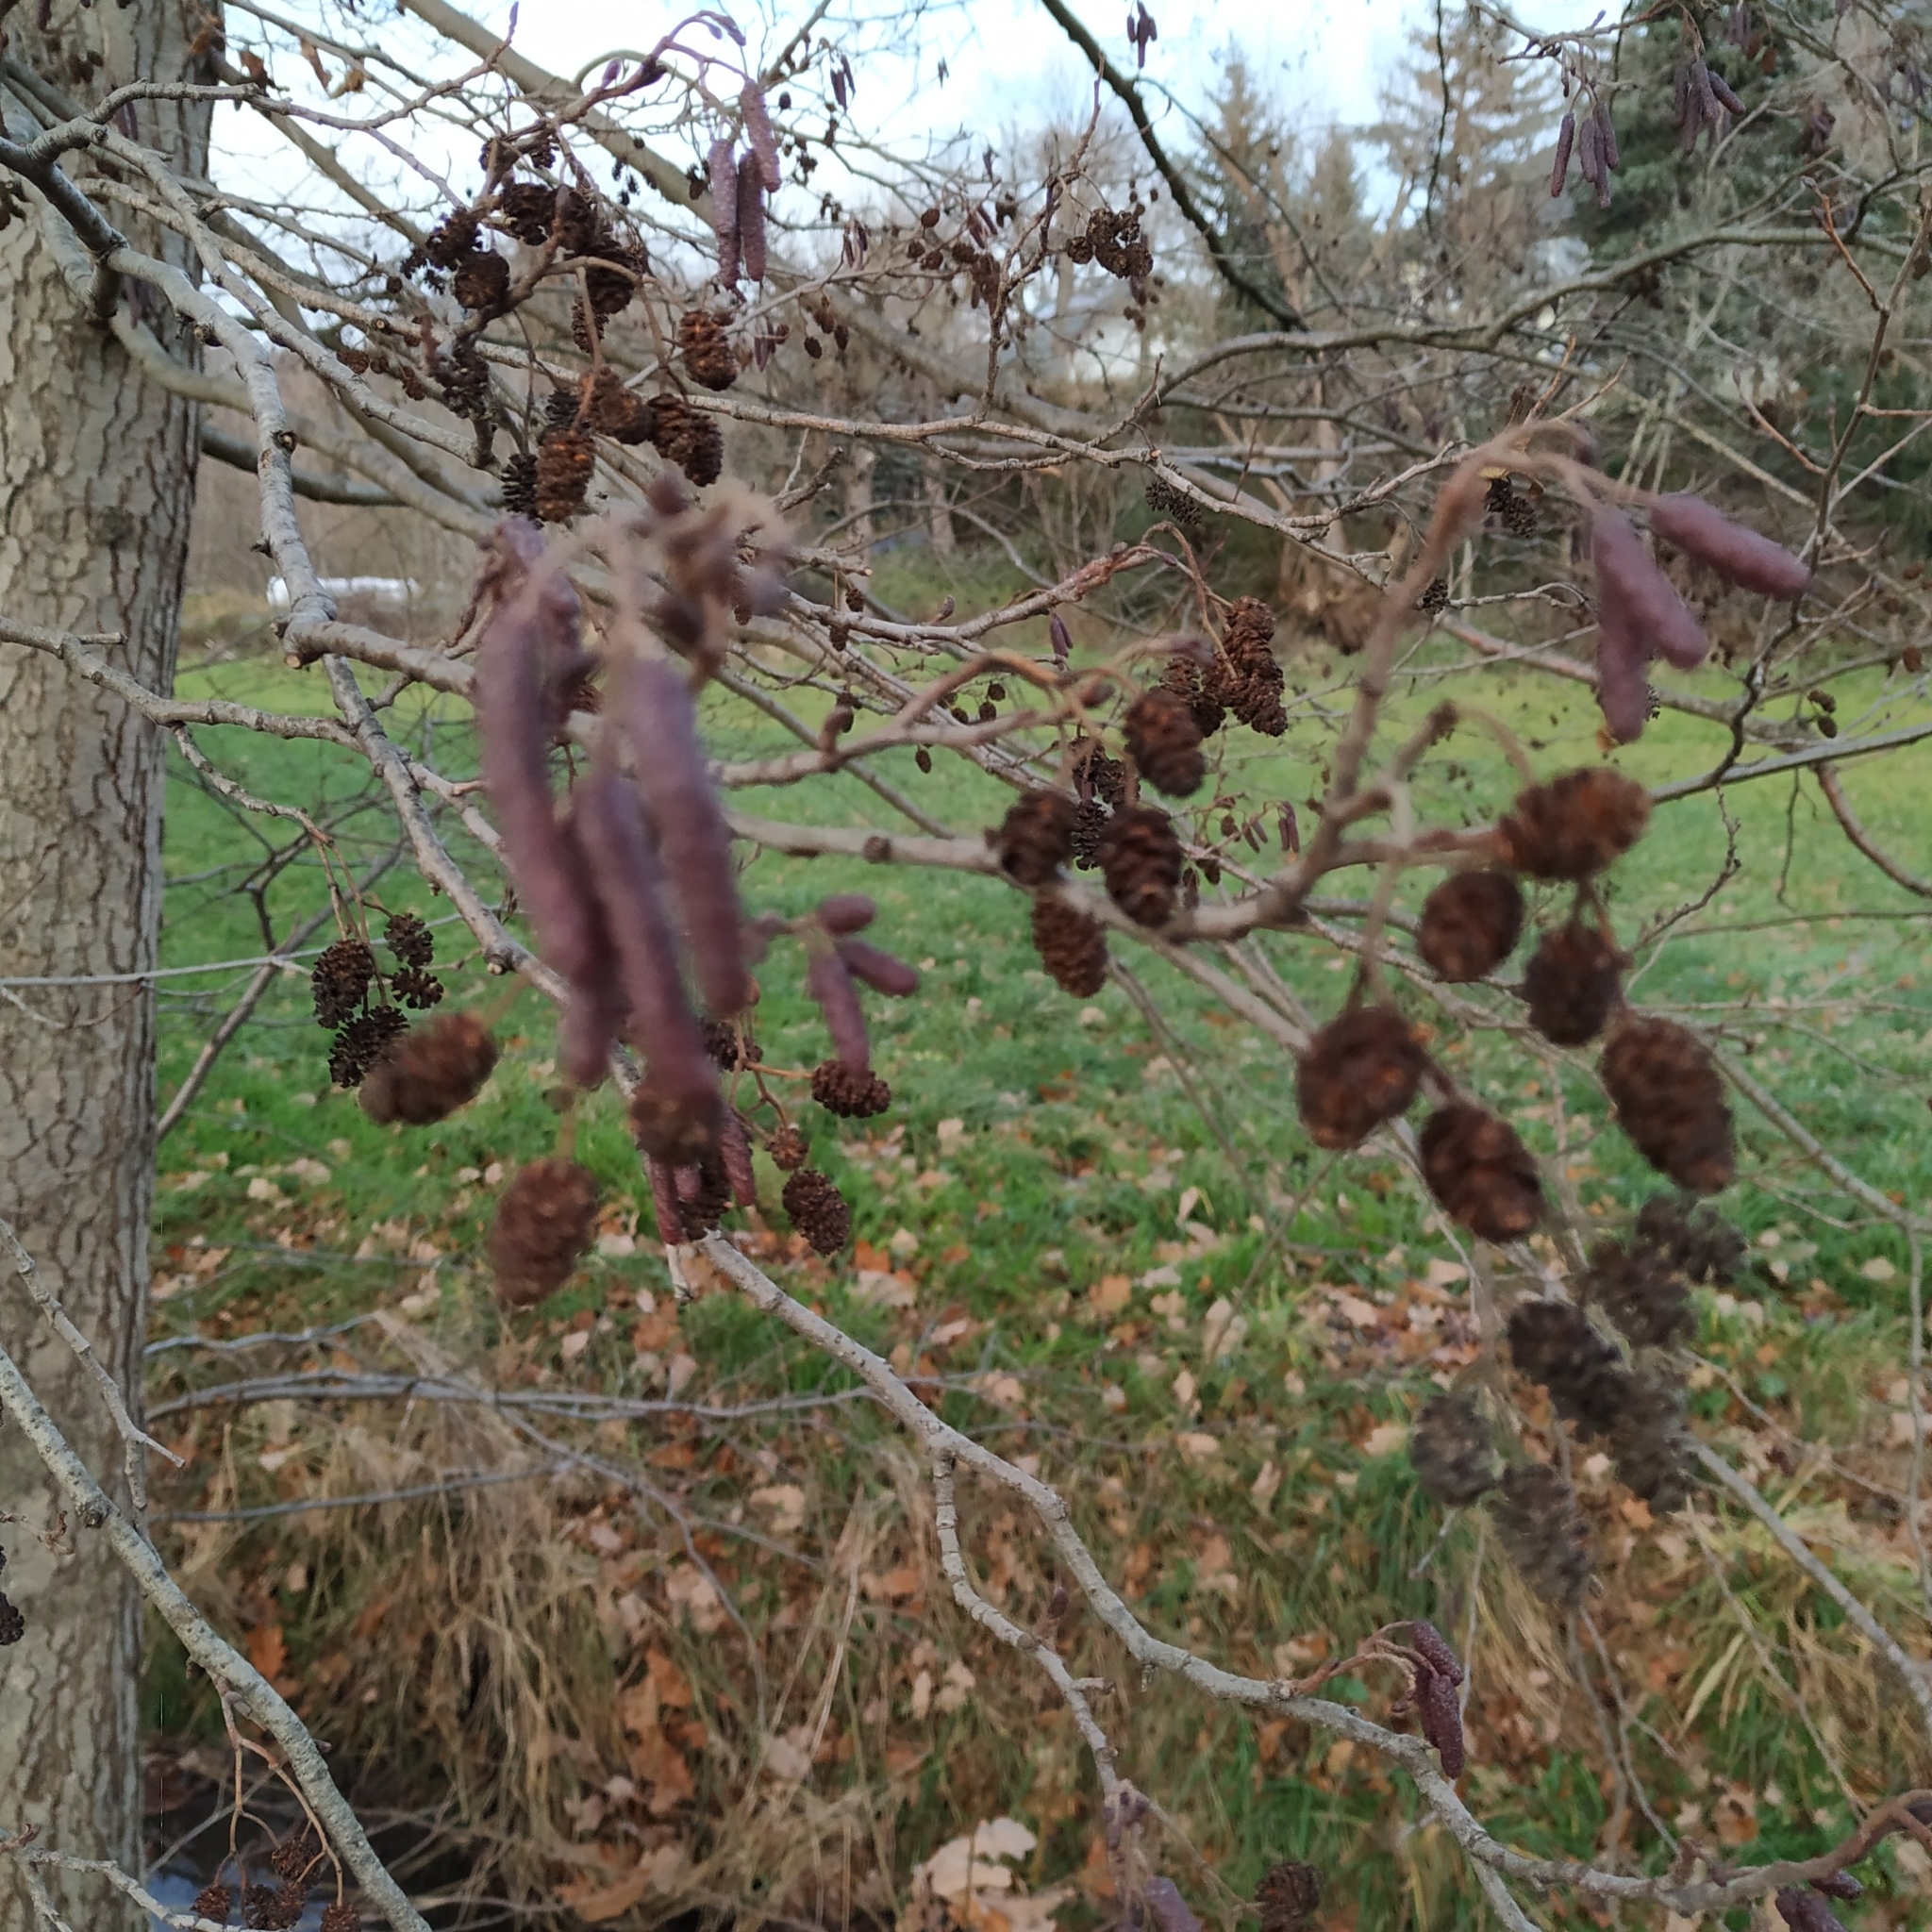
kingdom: Plantae
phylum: Tracheophyta
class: Magnoliopsida
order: Fagales
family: Betulaceae
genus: Alnus
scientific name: Alnus glutinosa
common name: Black alder
